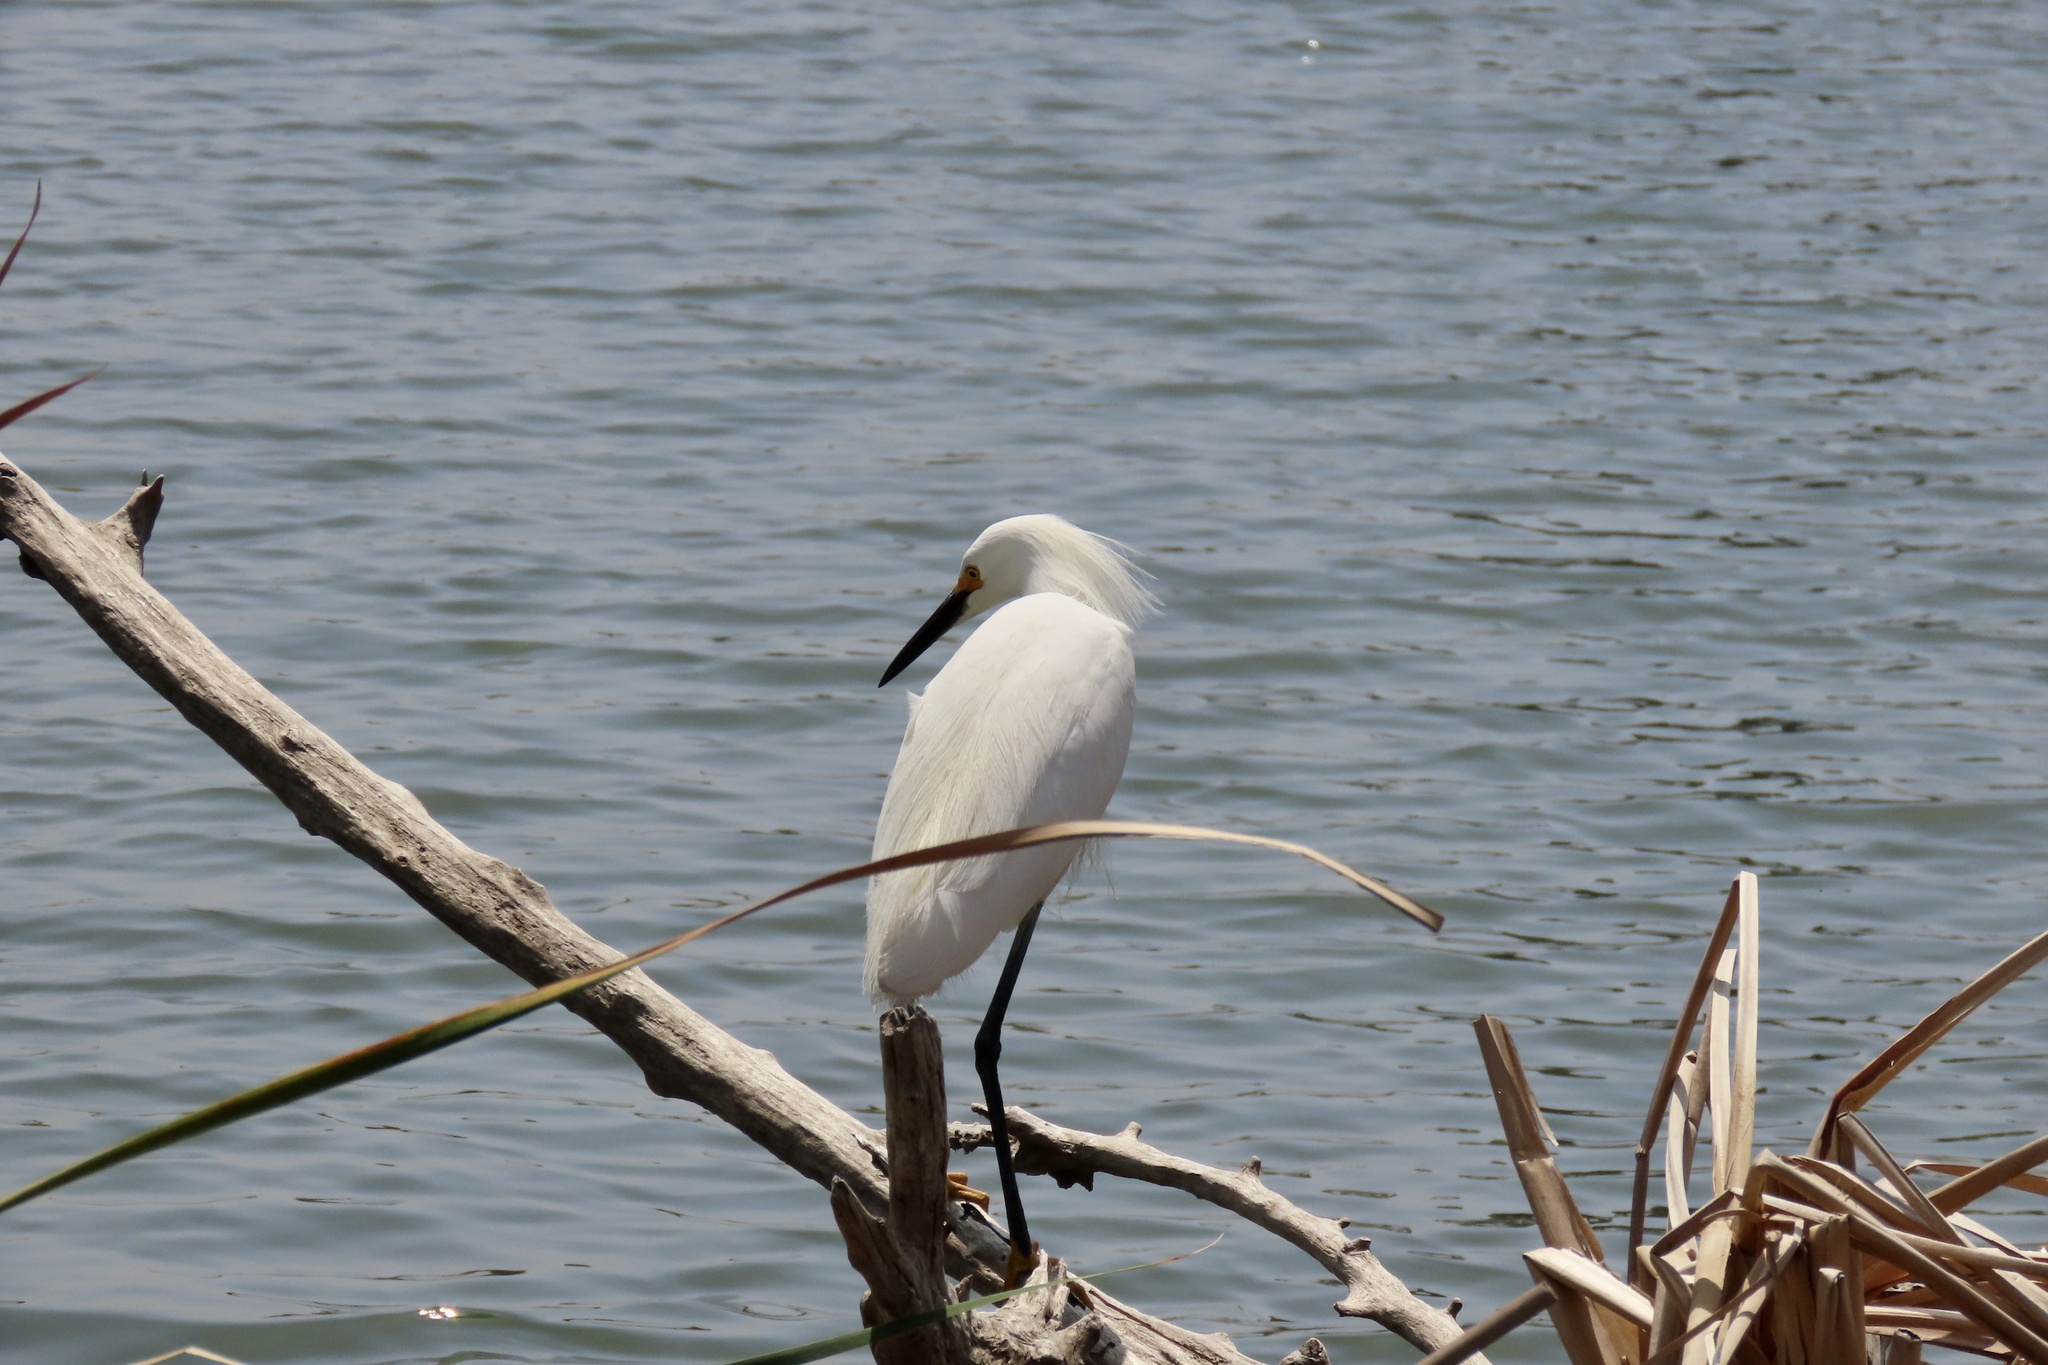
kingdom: Animalia
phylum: Chordata
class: Aves
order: Pelecaniformes
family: Ardeidae
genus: Egretta
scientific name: Egretta thula
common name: Snowy egret
